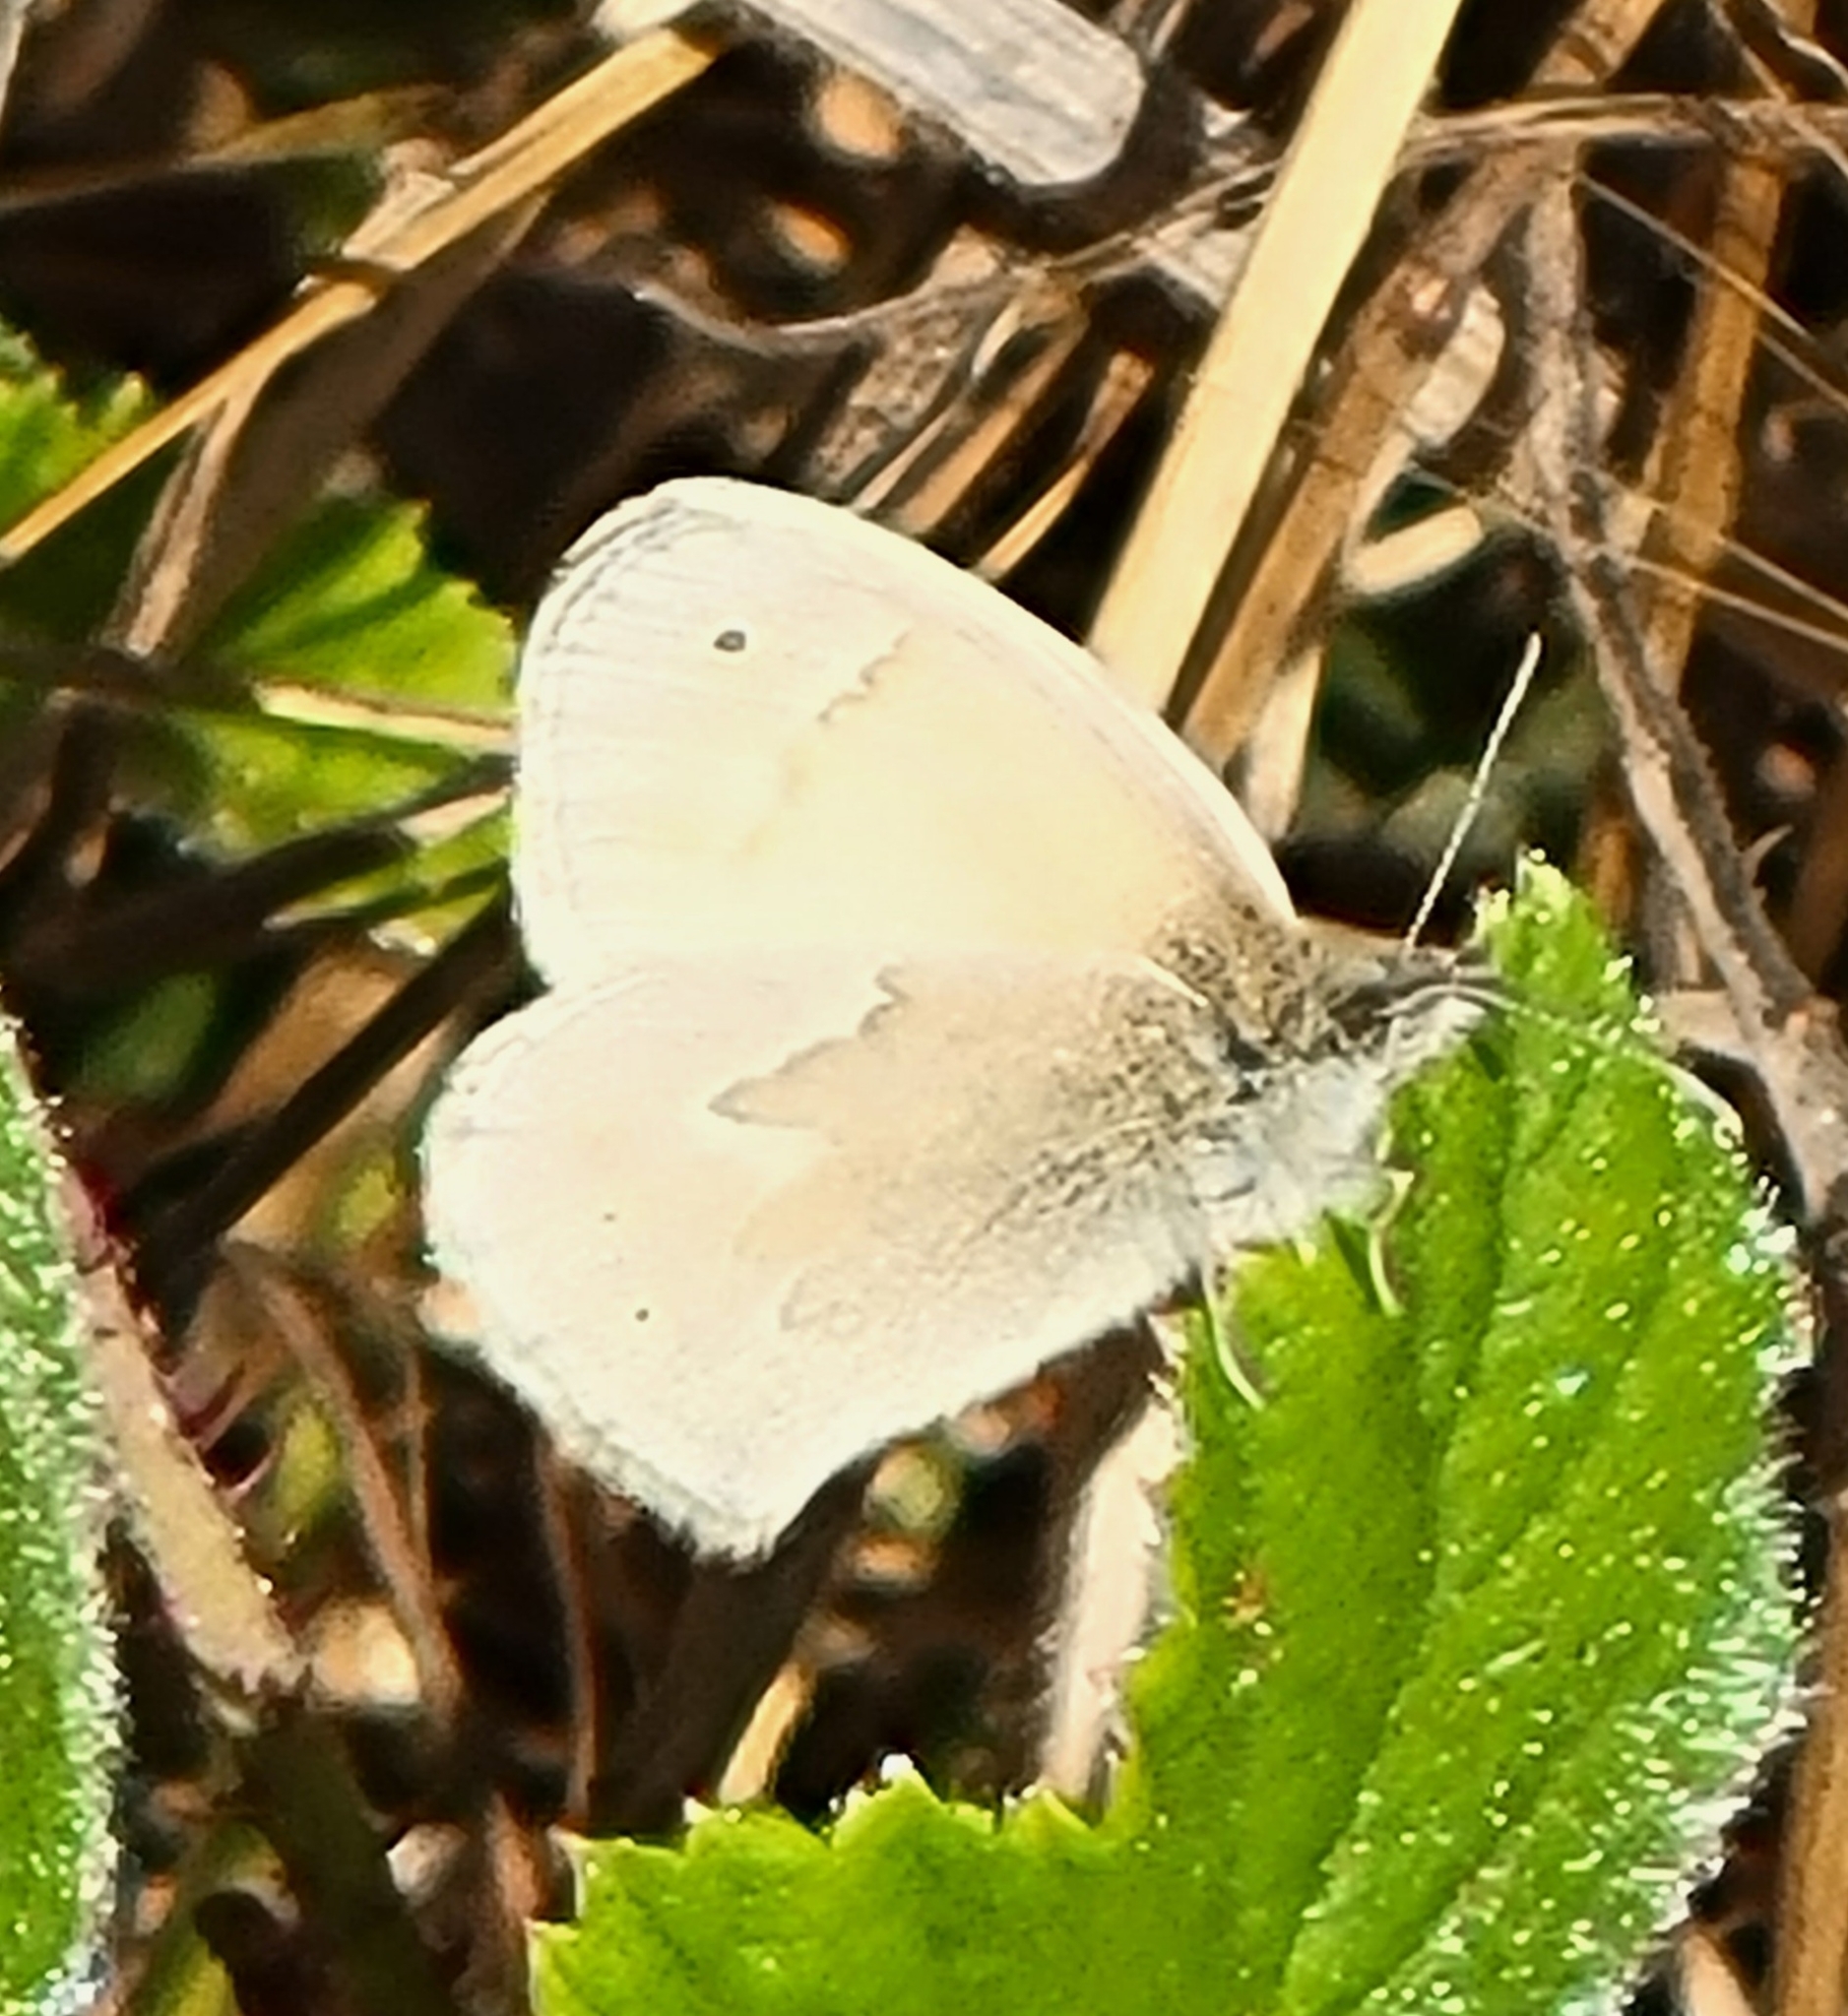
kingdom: Animalia
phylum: Arthropoda
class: Insecta
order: Lepidoptera
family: Nymphalidae
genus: Coenonympha
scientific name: Coenonympha california
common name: Common ringlet
